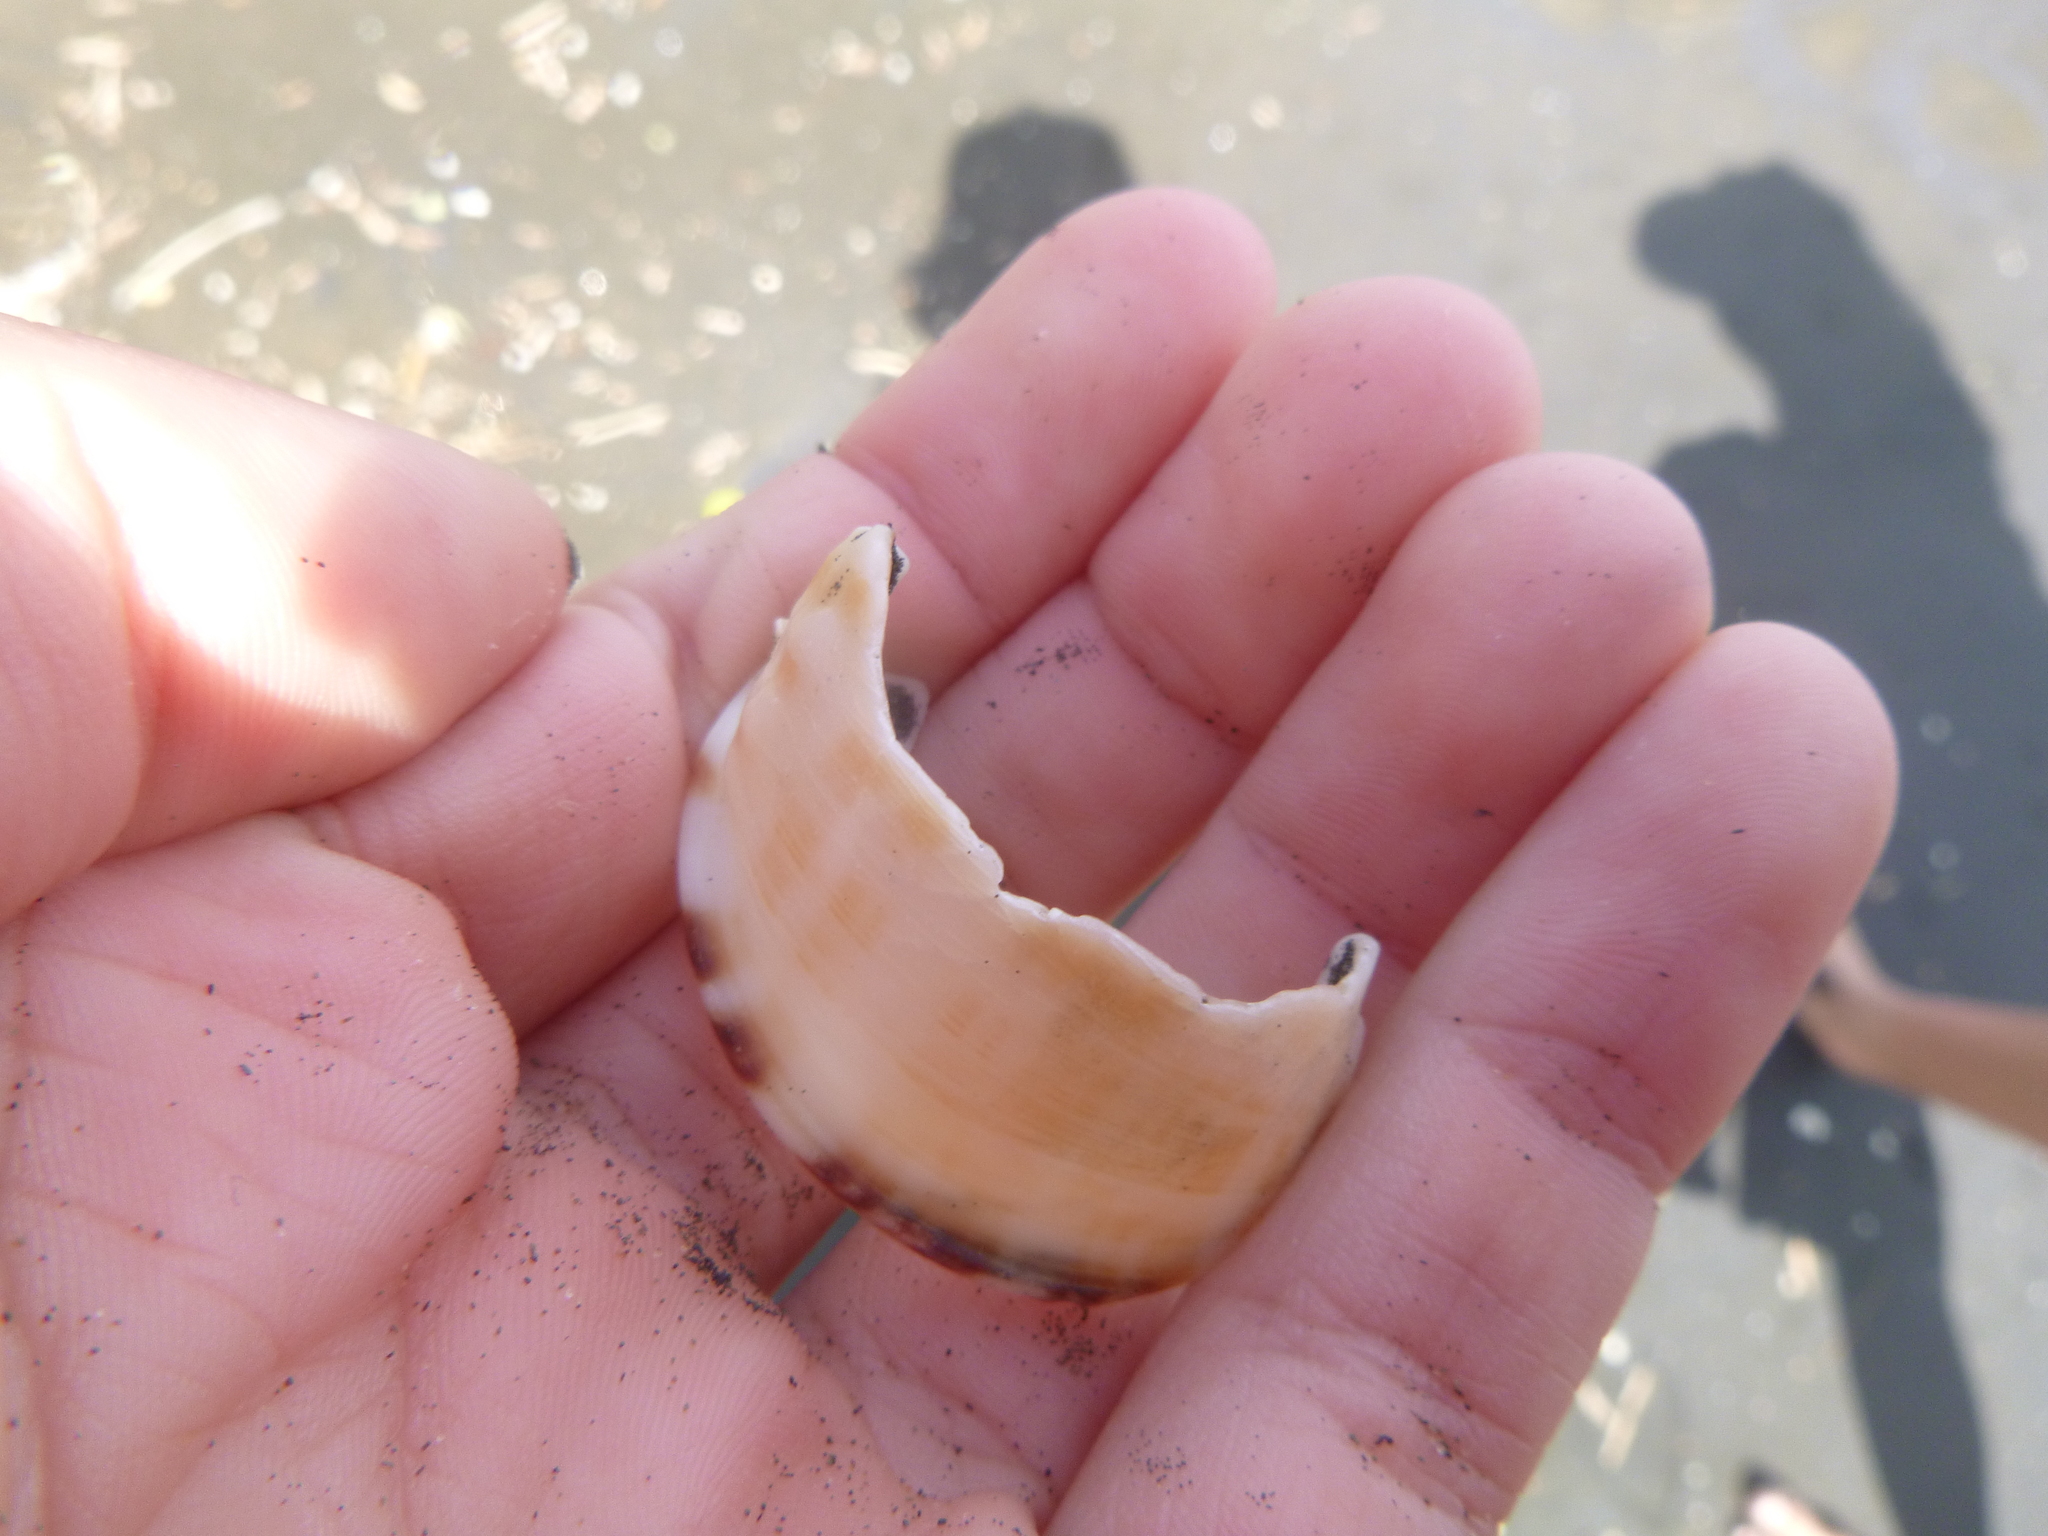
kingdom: Animalia
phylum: Mollusca
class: Gastropoda
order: Littorinimorpha
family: Cassidae
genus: Semicassis
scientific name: Semicassis pyrum
